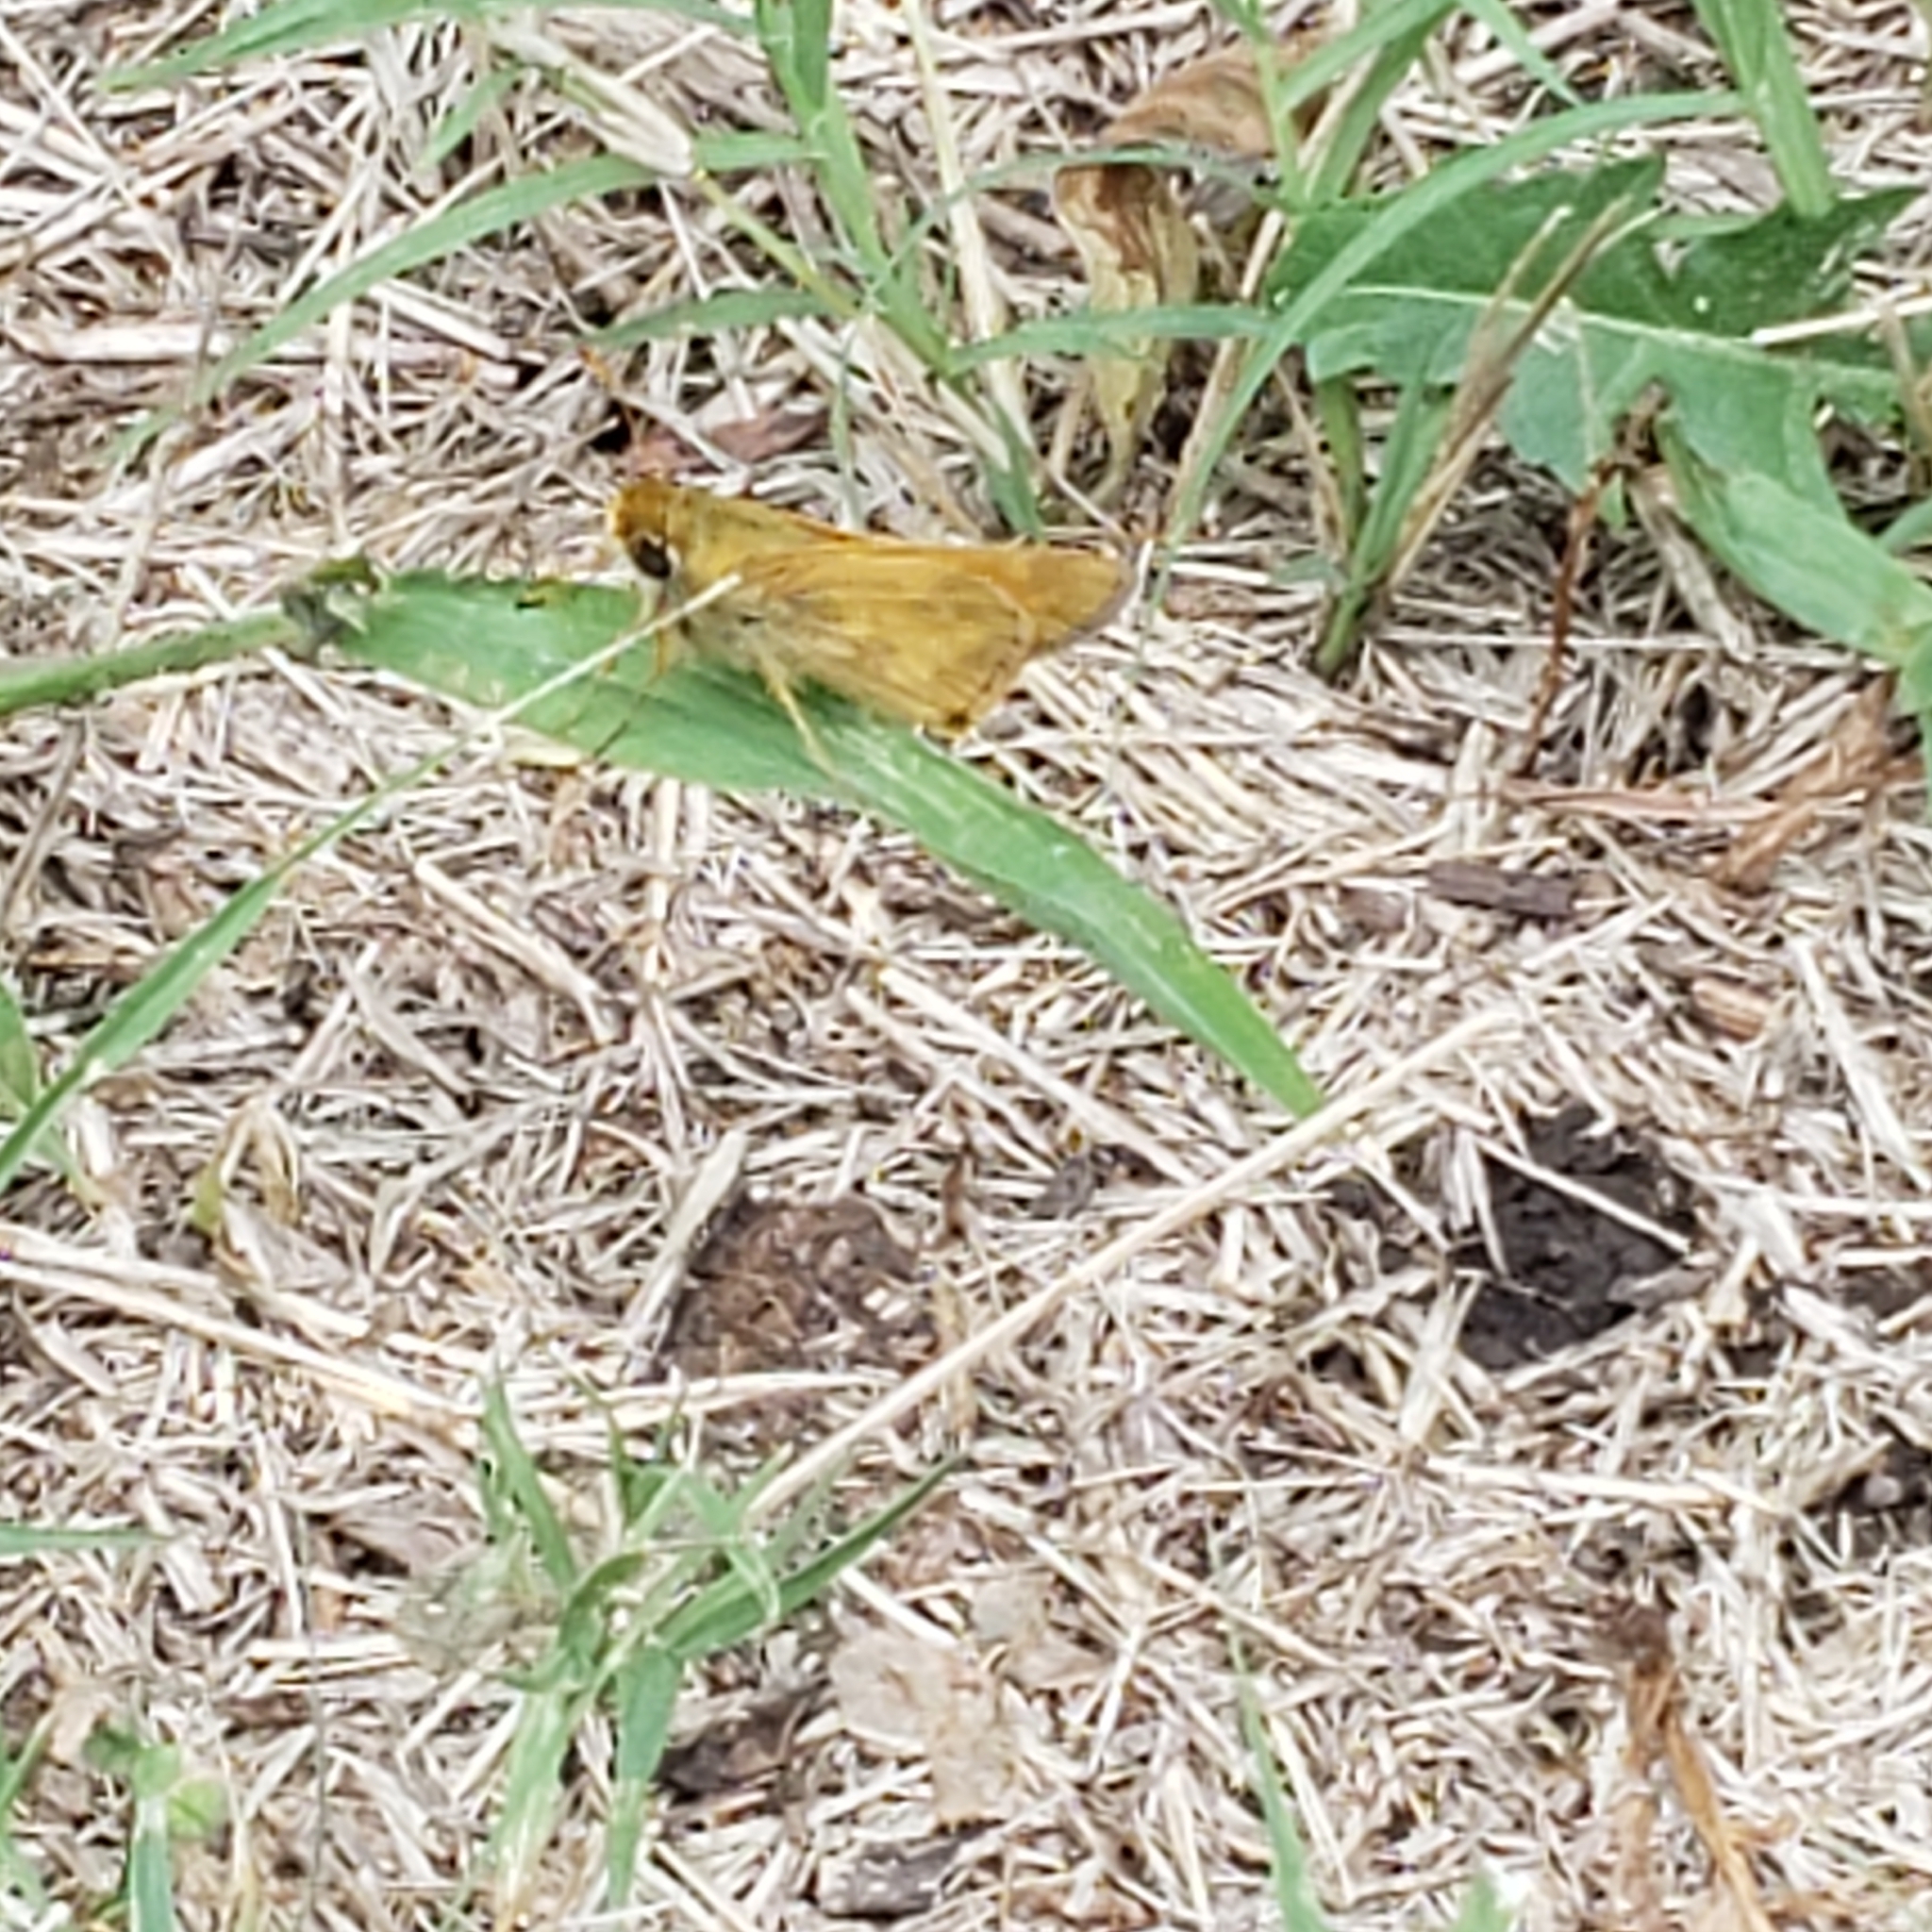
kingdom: Animalia
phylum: Arthropoda
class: Insecta
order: Lepidoptera
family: Hesperiidae
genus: Atalopedes
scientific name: Atalopedes
